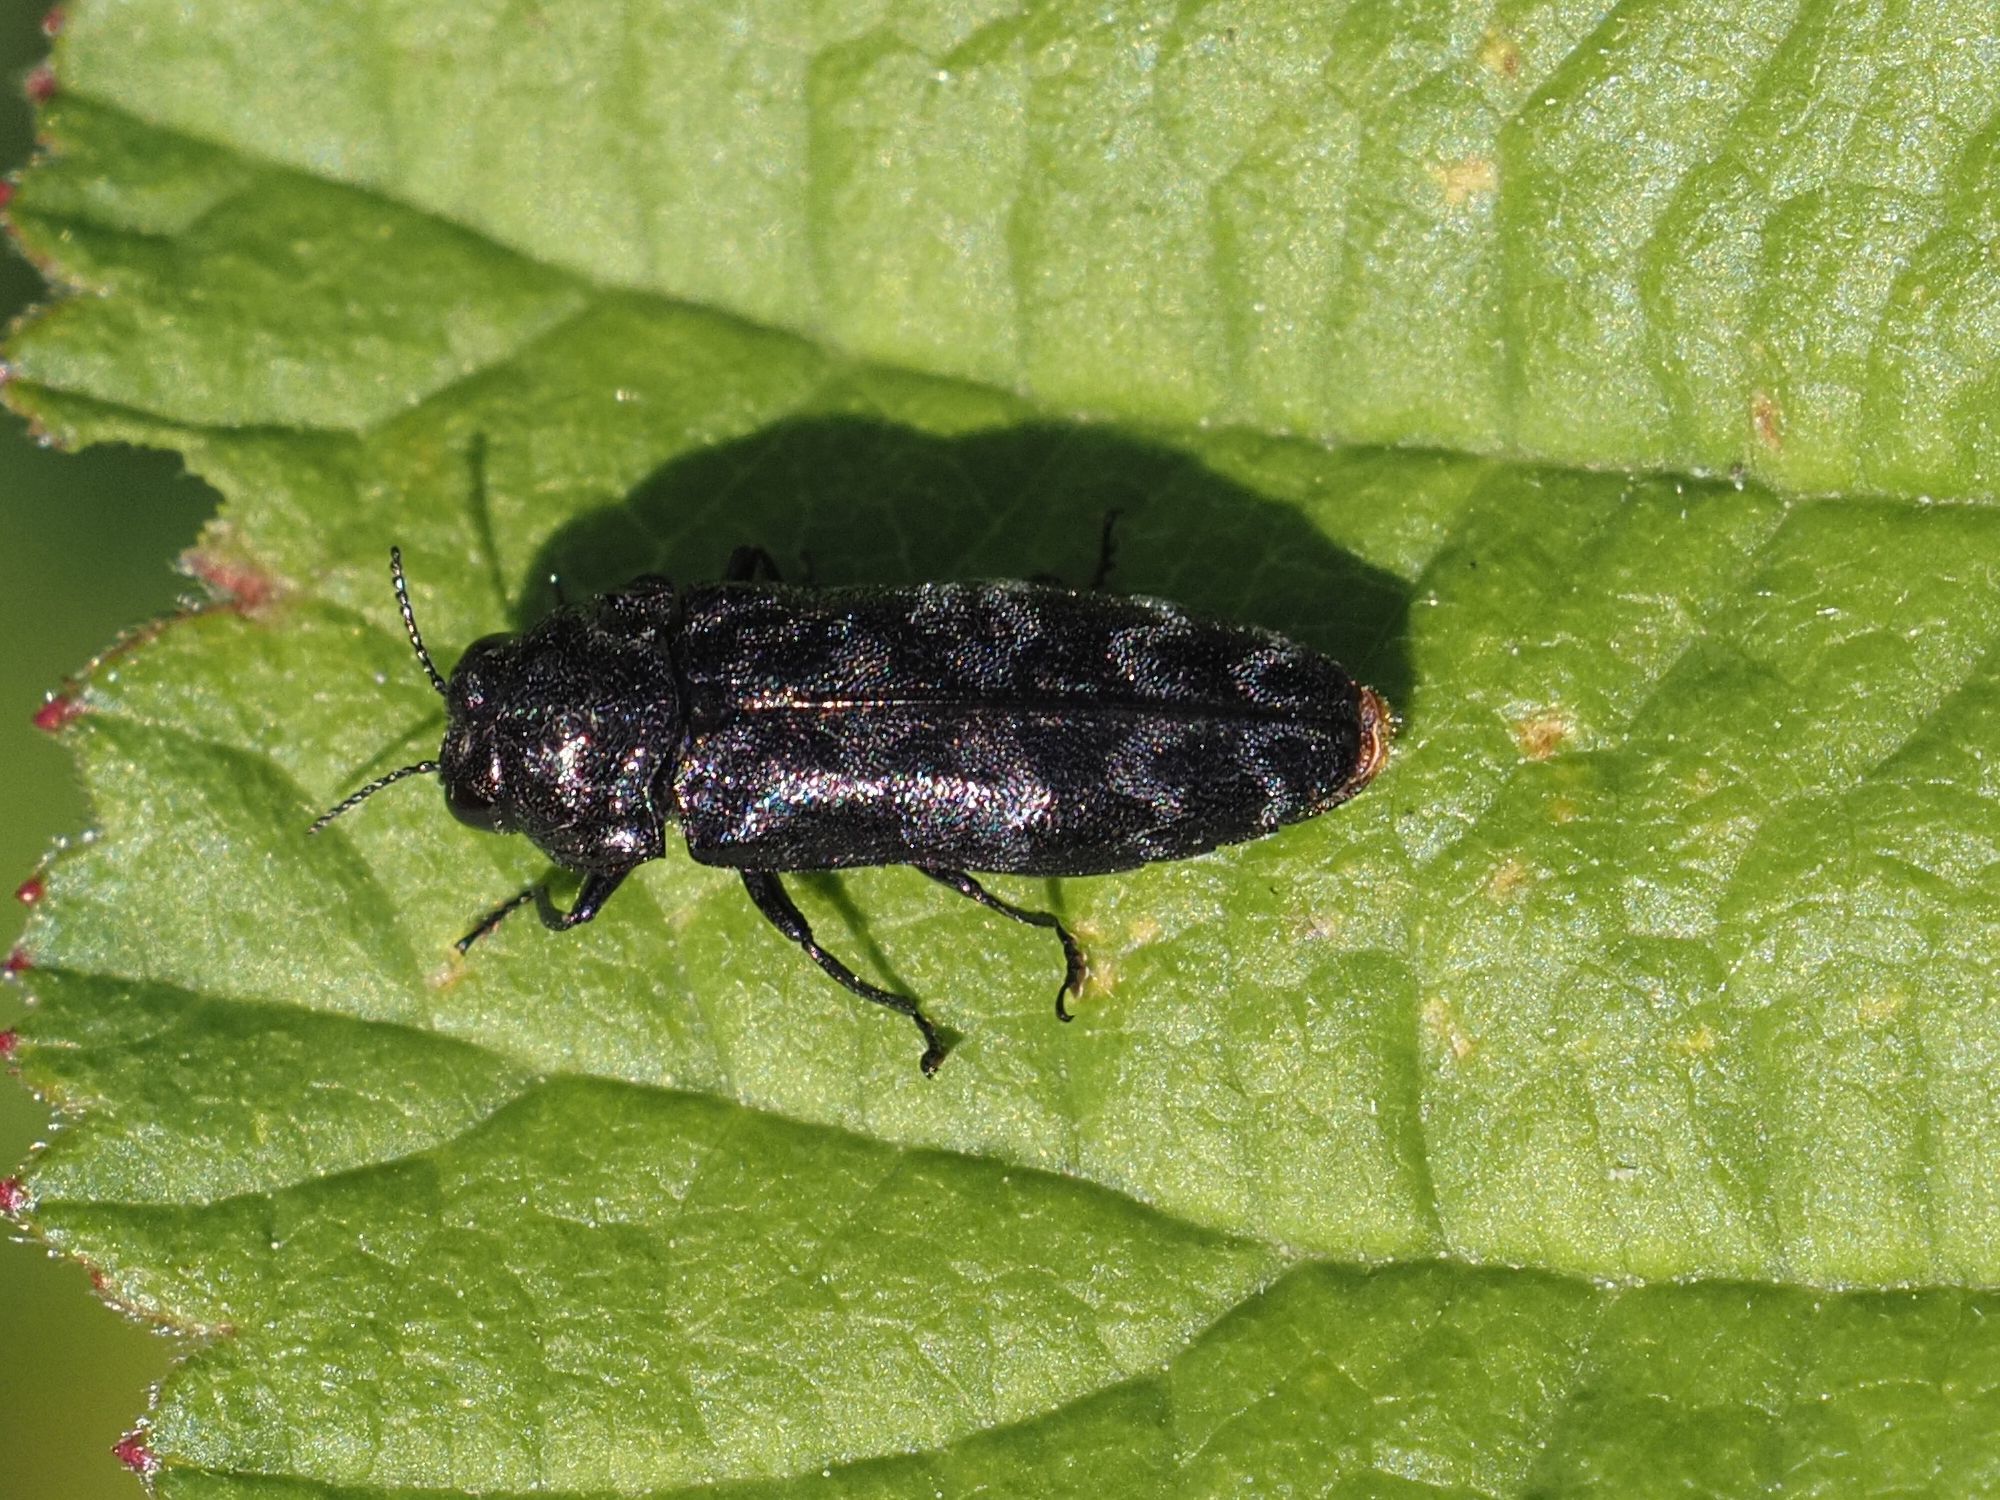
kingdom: Animalia
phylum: Arthropoda
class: Insecta
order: Coleoptera
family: Buprestidae
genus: Coraebus
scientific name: Coraebus rubi
